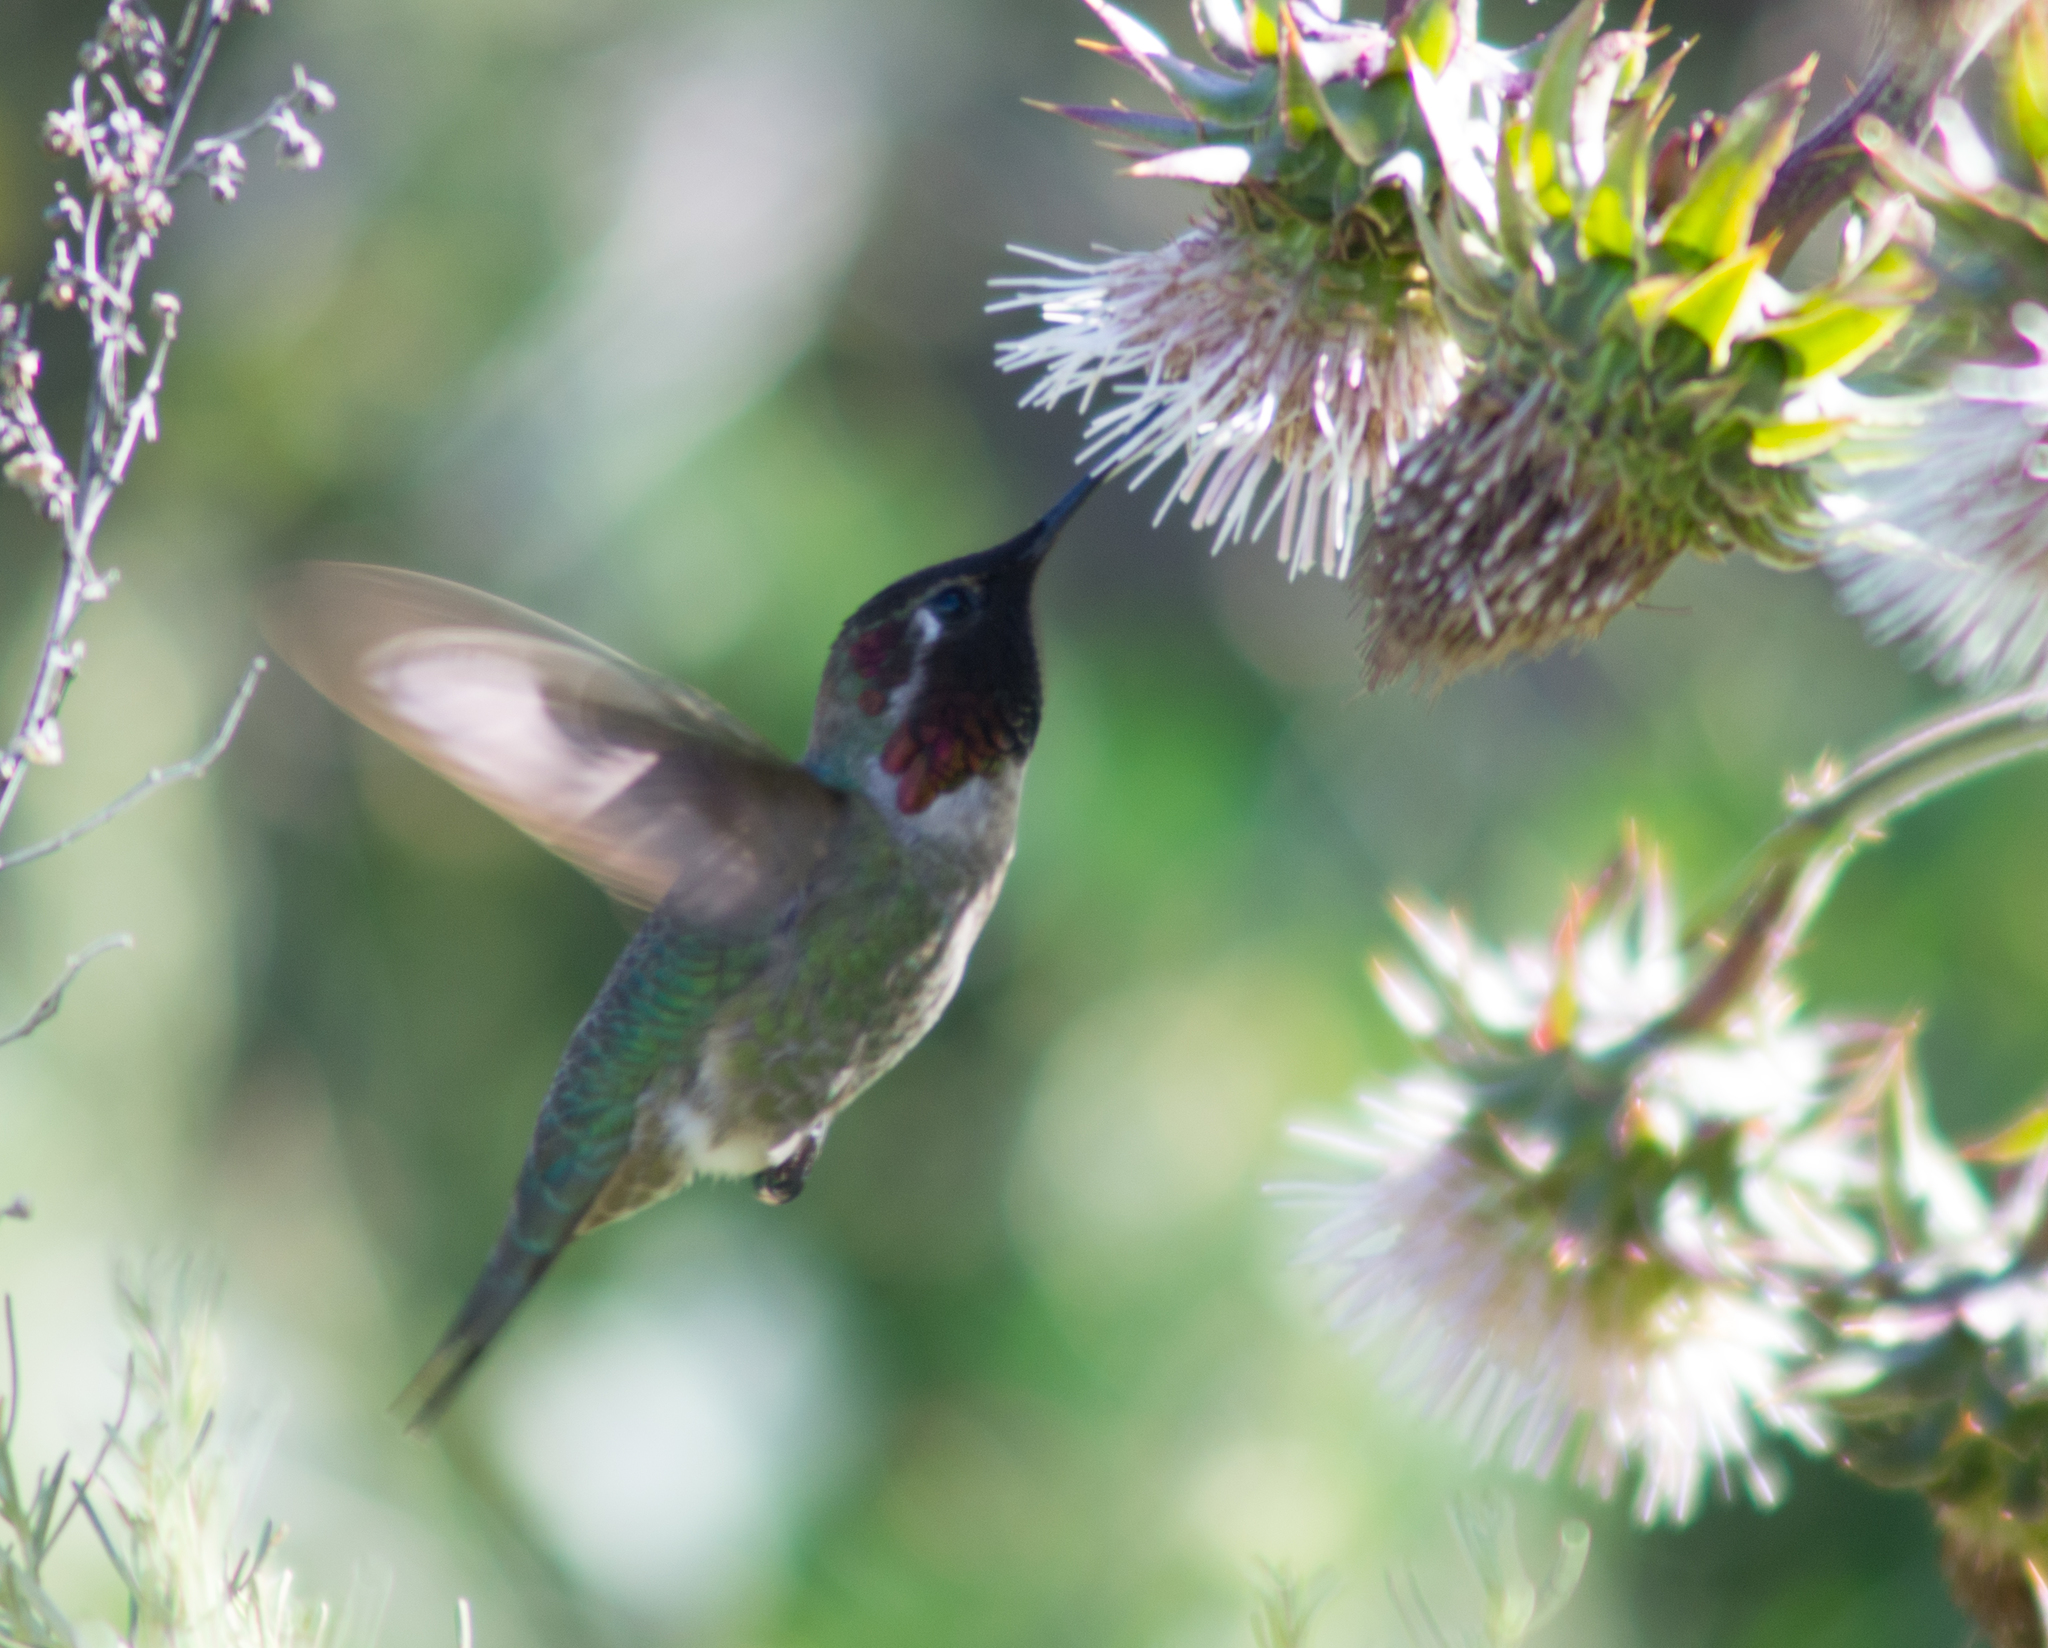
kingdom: Animalia
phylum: Chordata
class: Aves
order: Apodiformes
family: Trochilidae
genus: Calypte
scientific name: Calypte anna
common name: Anna's hummingbird
